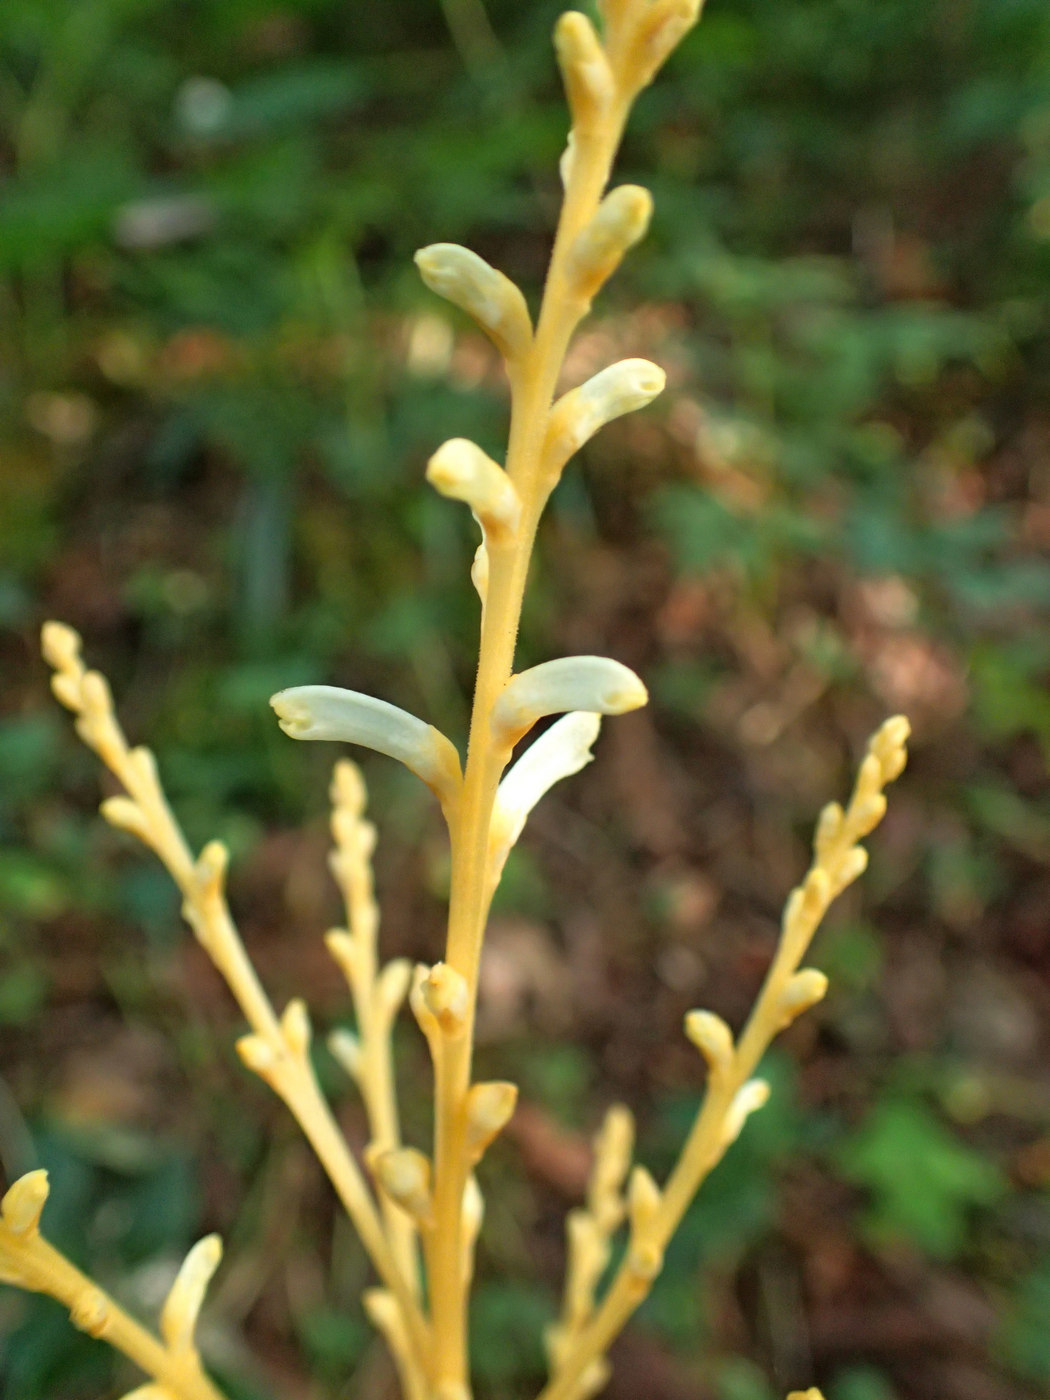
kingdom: Plantae
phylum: Tracheophyta
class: Magnoliopsida
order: Lamiales
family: Orobanchaceae
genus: Epifagus
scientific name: Epifagus virginiana
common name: Beechdrops
